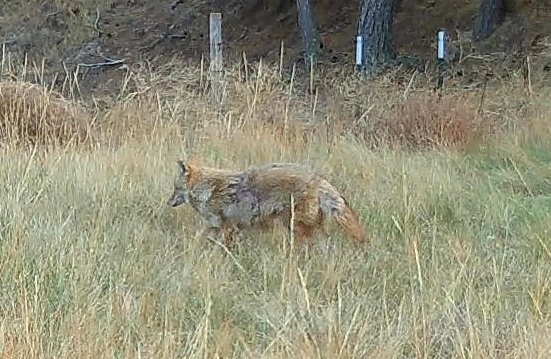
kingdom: Animalia
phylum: Chordata
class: Mammalia
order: Carnivora
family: Canidae
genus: Canis
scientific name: Canis latrans
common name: Coyote
